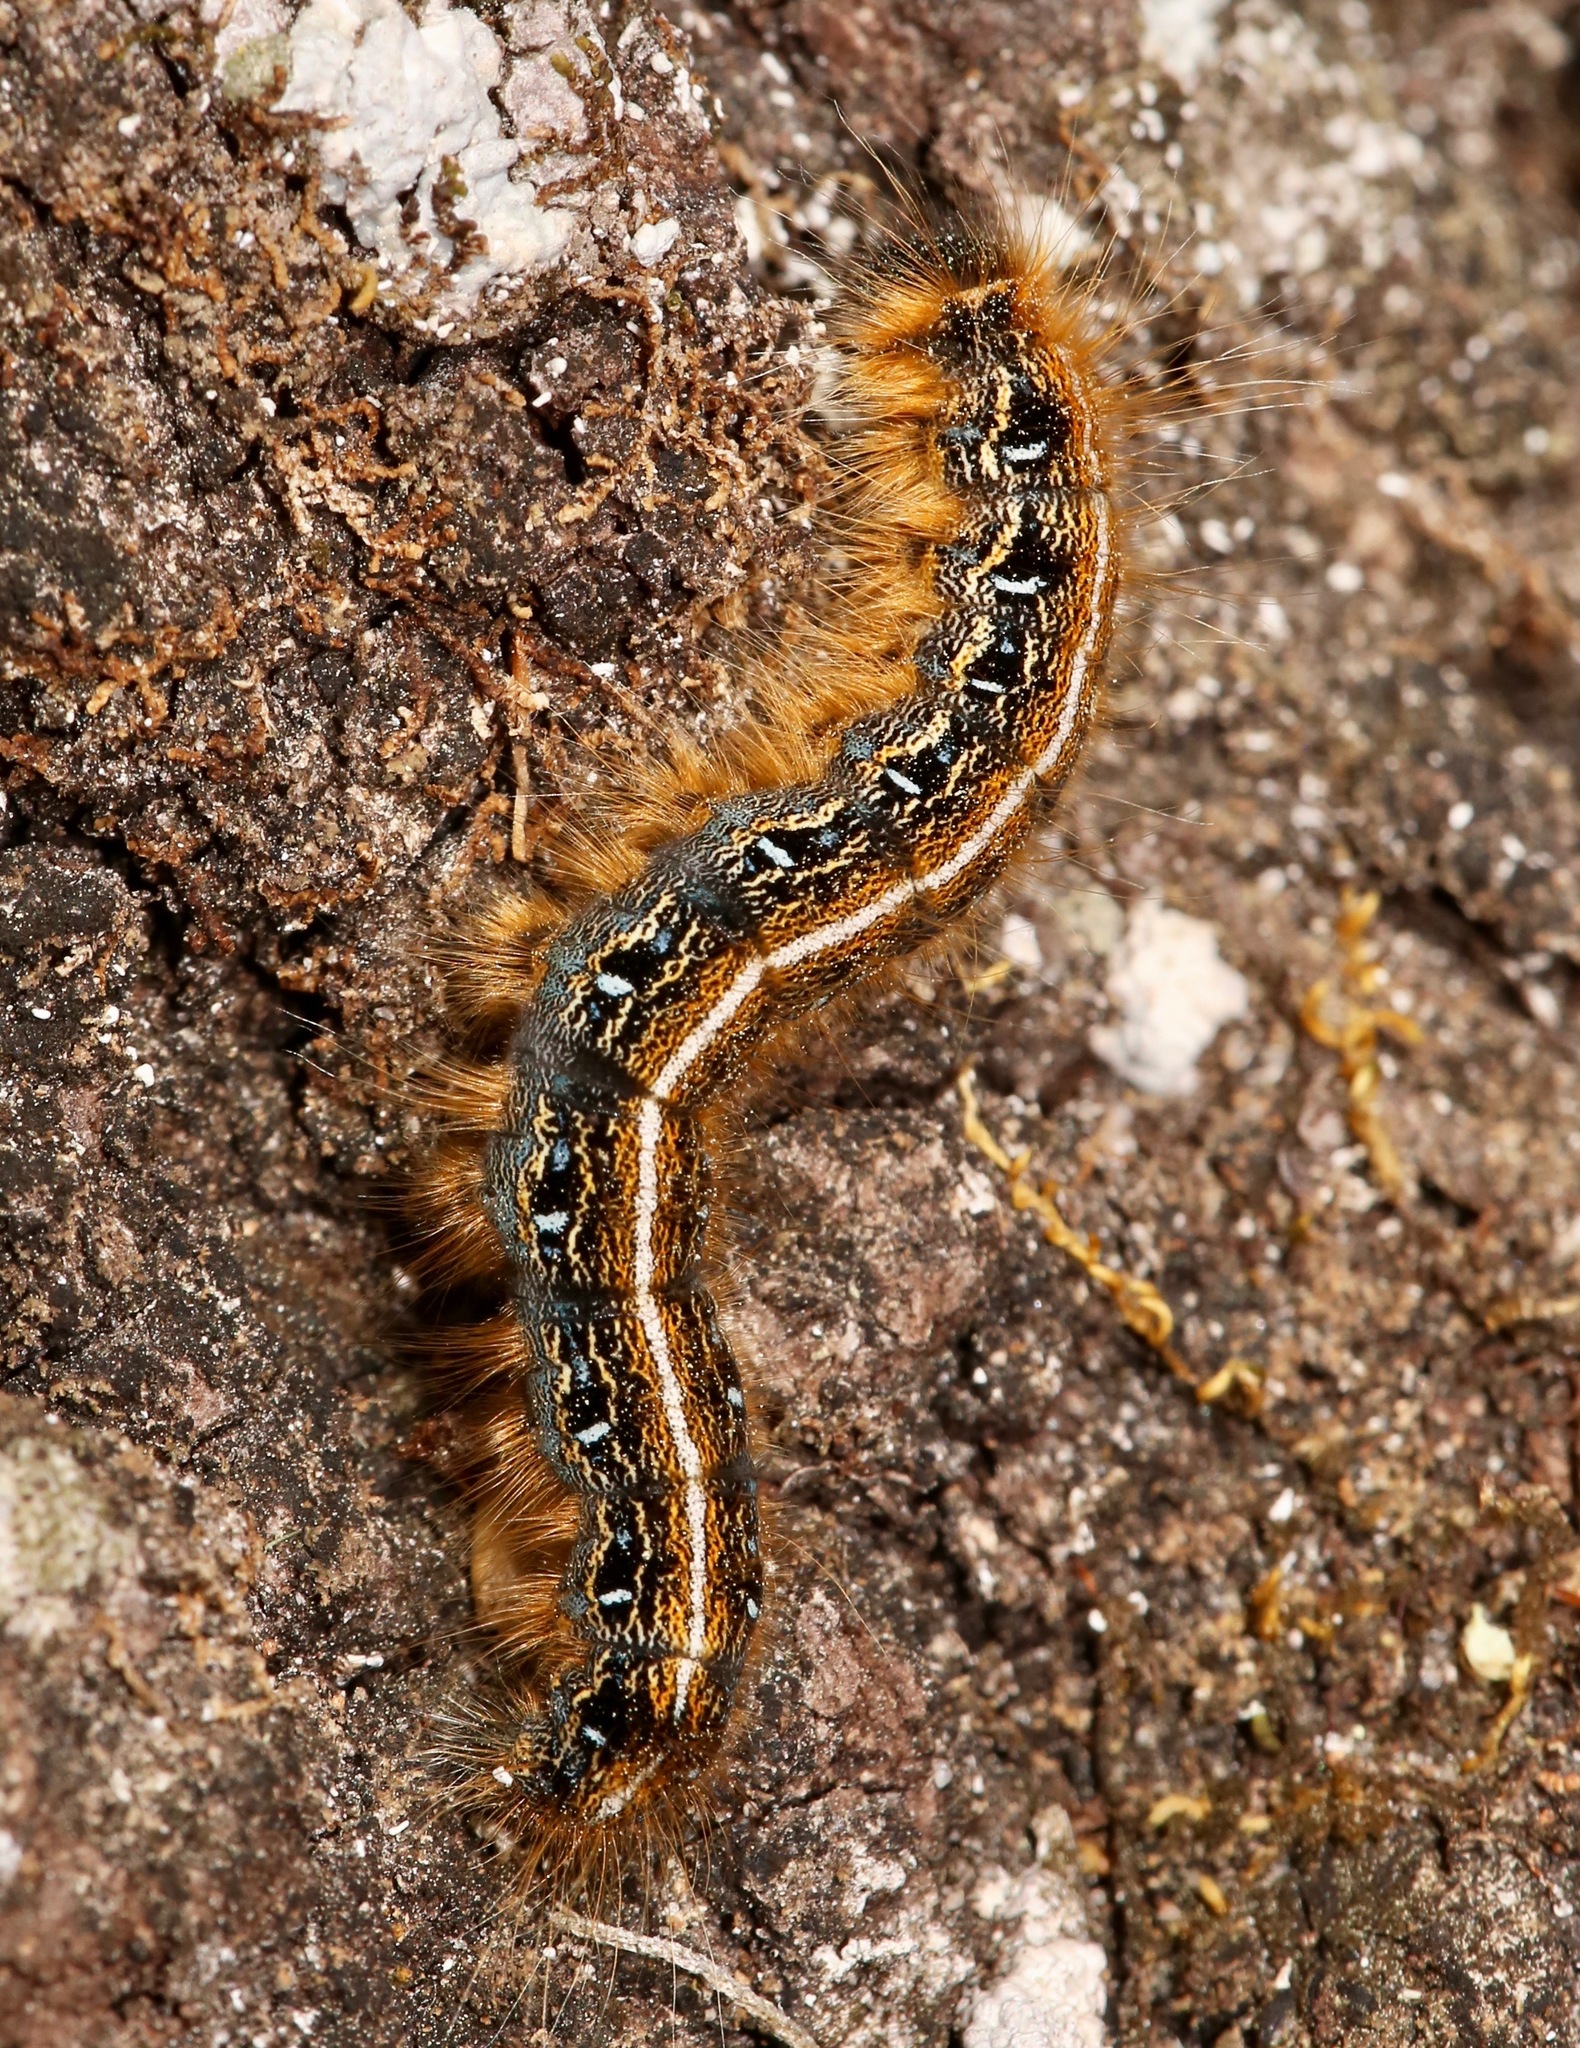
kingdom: Animalia
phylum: Arthropoda
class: Insecta
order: Lepidoptera
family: Lasiocampidae
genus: Malacosoma
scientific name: Malacosoma americana
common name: Eastern tent caterpillar moth
